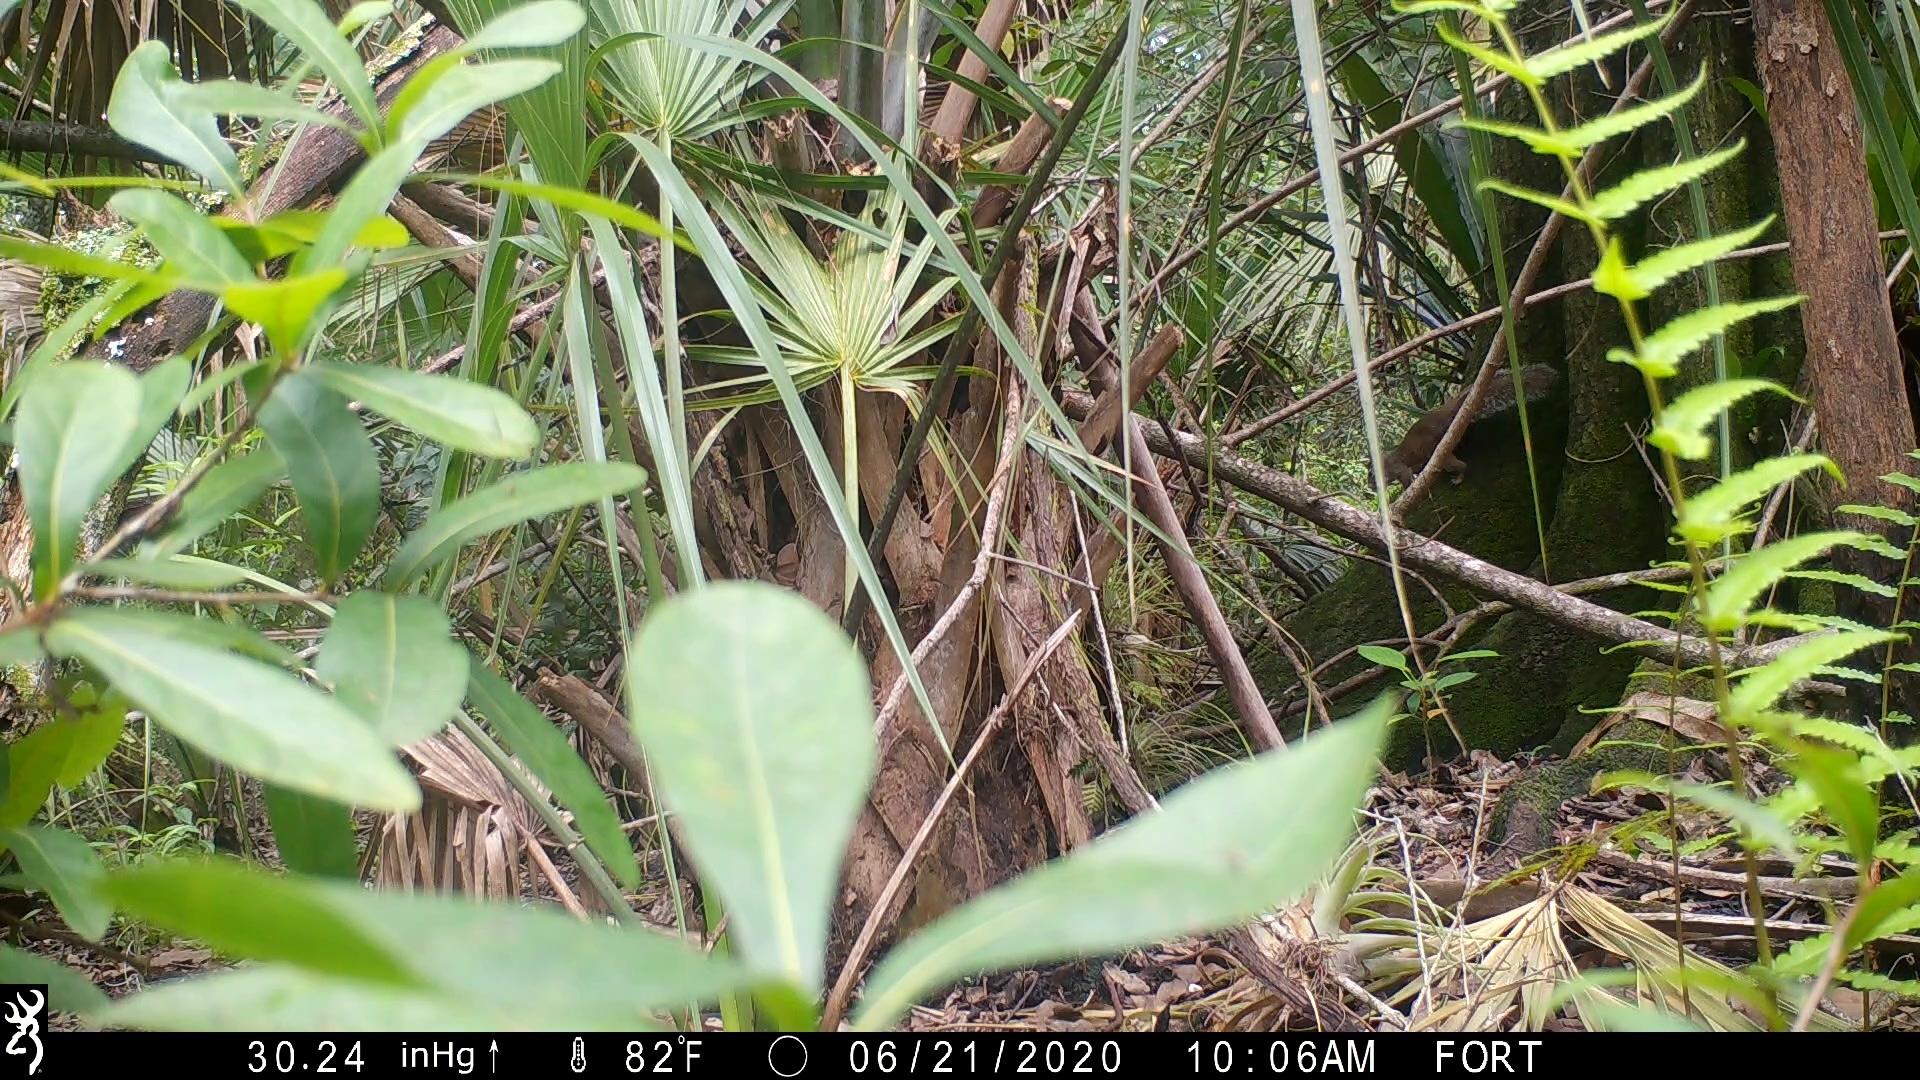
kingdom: Animalia
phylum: Chordata
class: Mammalia
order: Rodentia
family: Sciuridae
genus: Sciurus
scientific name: Sciurus carolinensis
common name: Eastern gray squirrel
